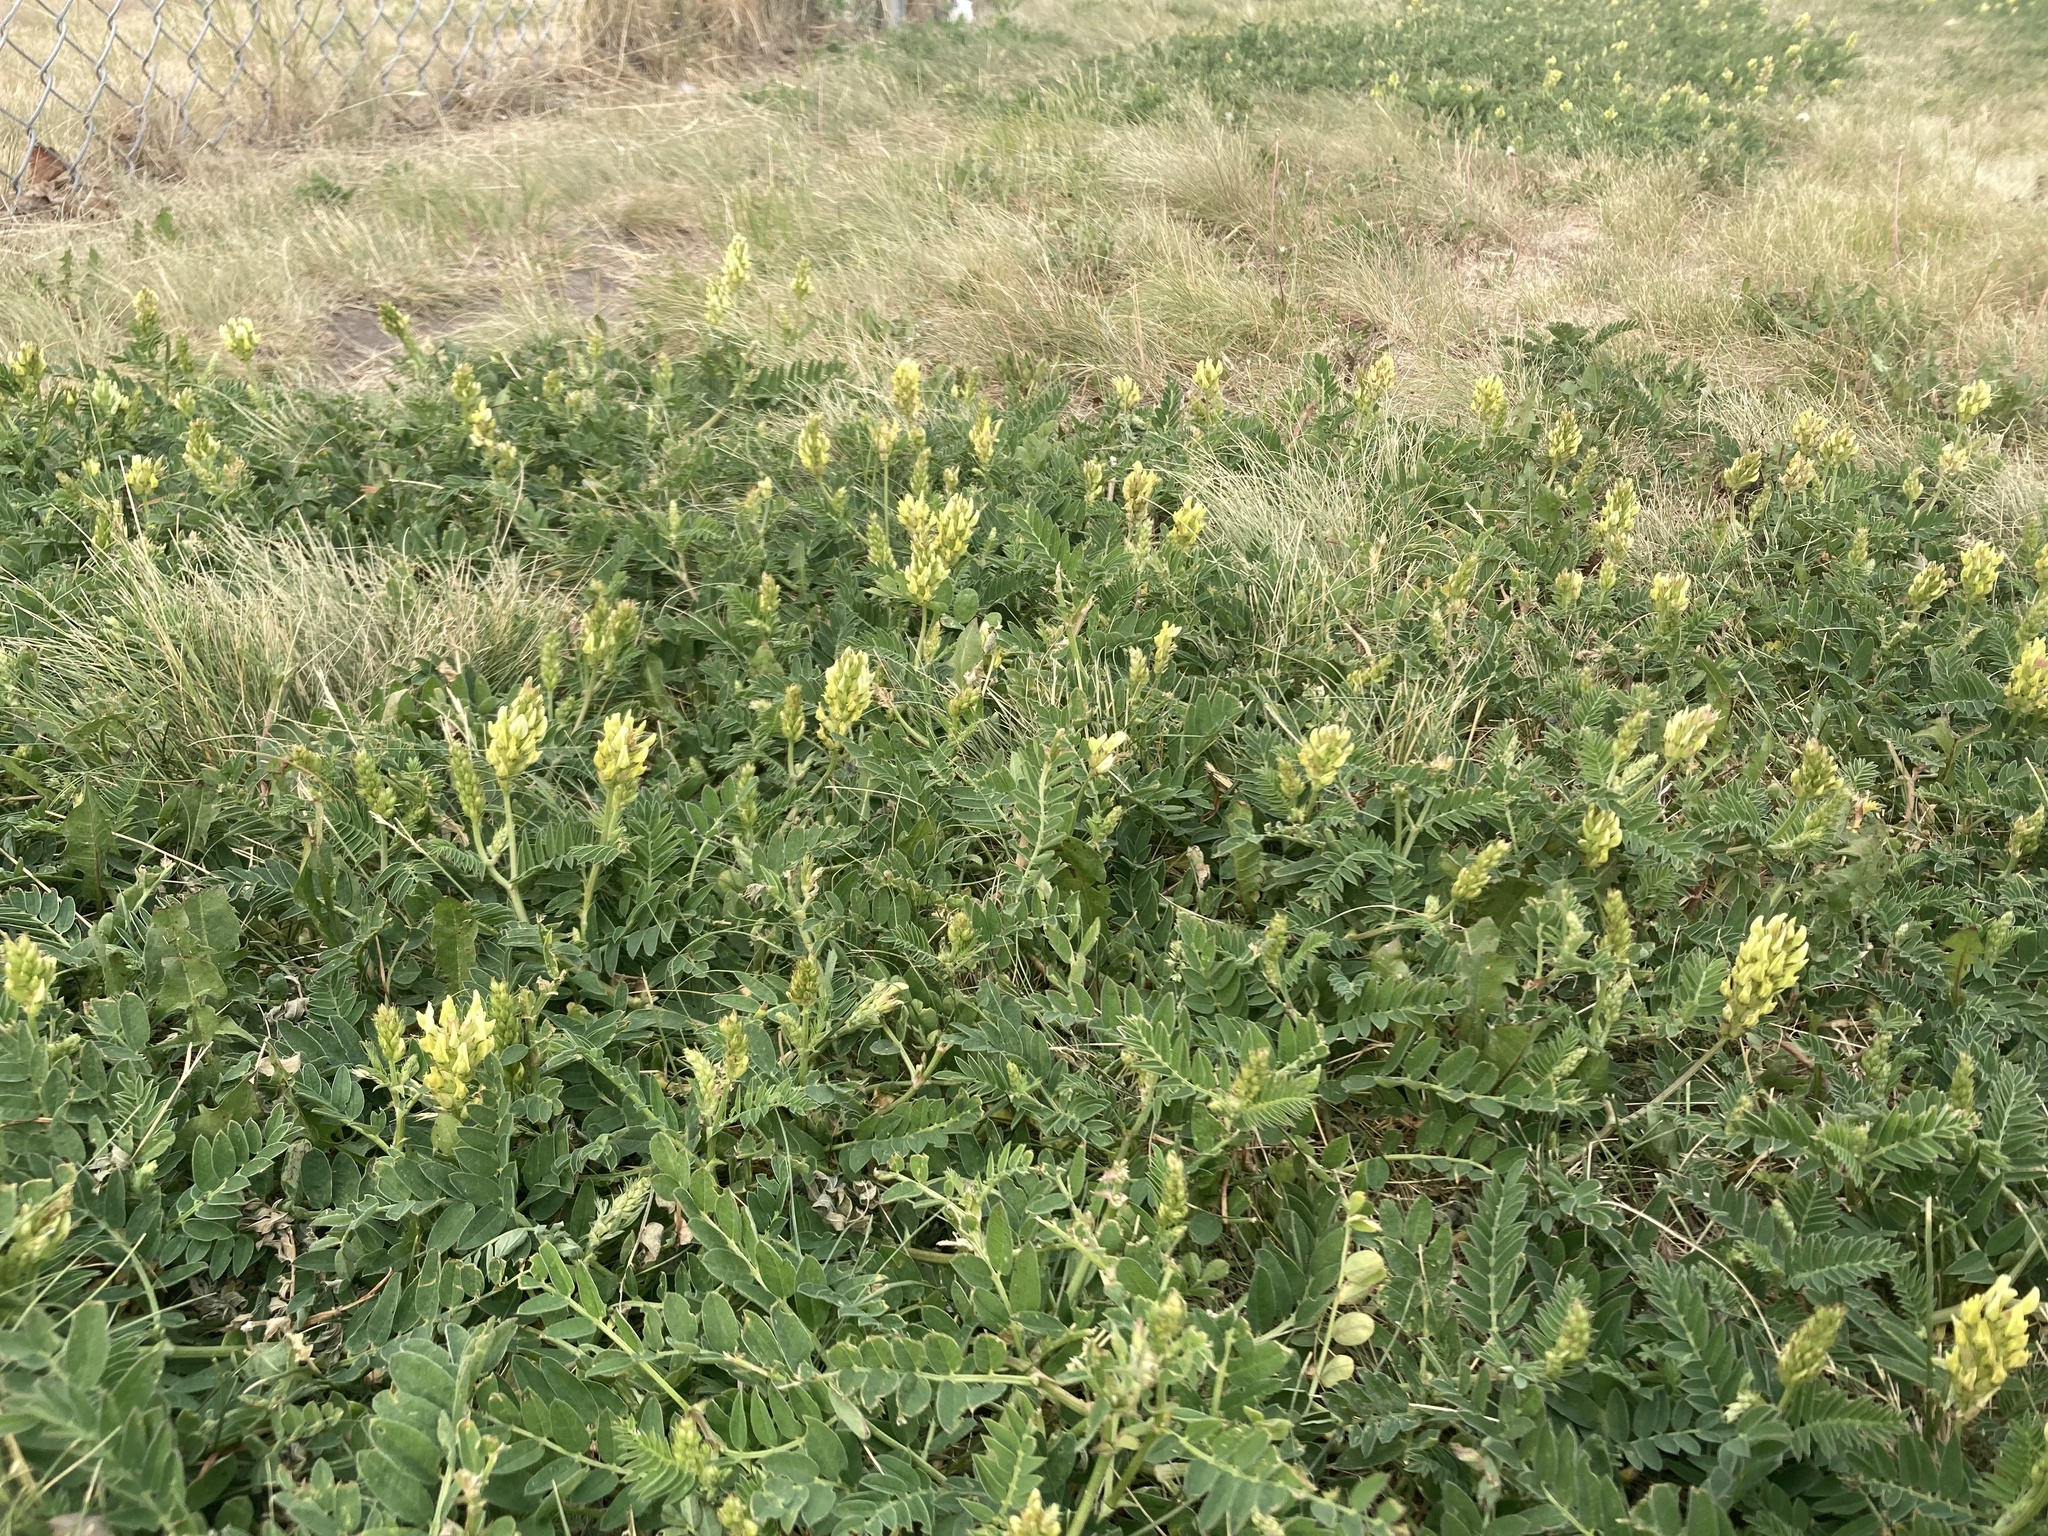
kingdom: Plantae
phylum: Tracheophyta
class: Magnoliopsida
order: Fabales
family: Fabaceae
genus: Astragalus
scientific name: Astragalus cicer
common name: Chick-pea milk-vetch
